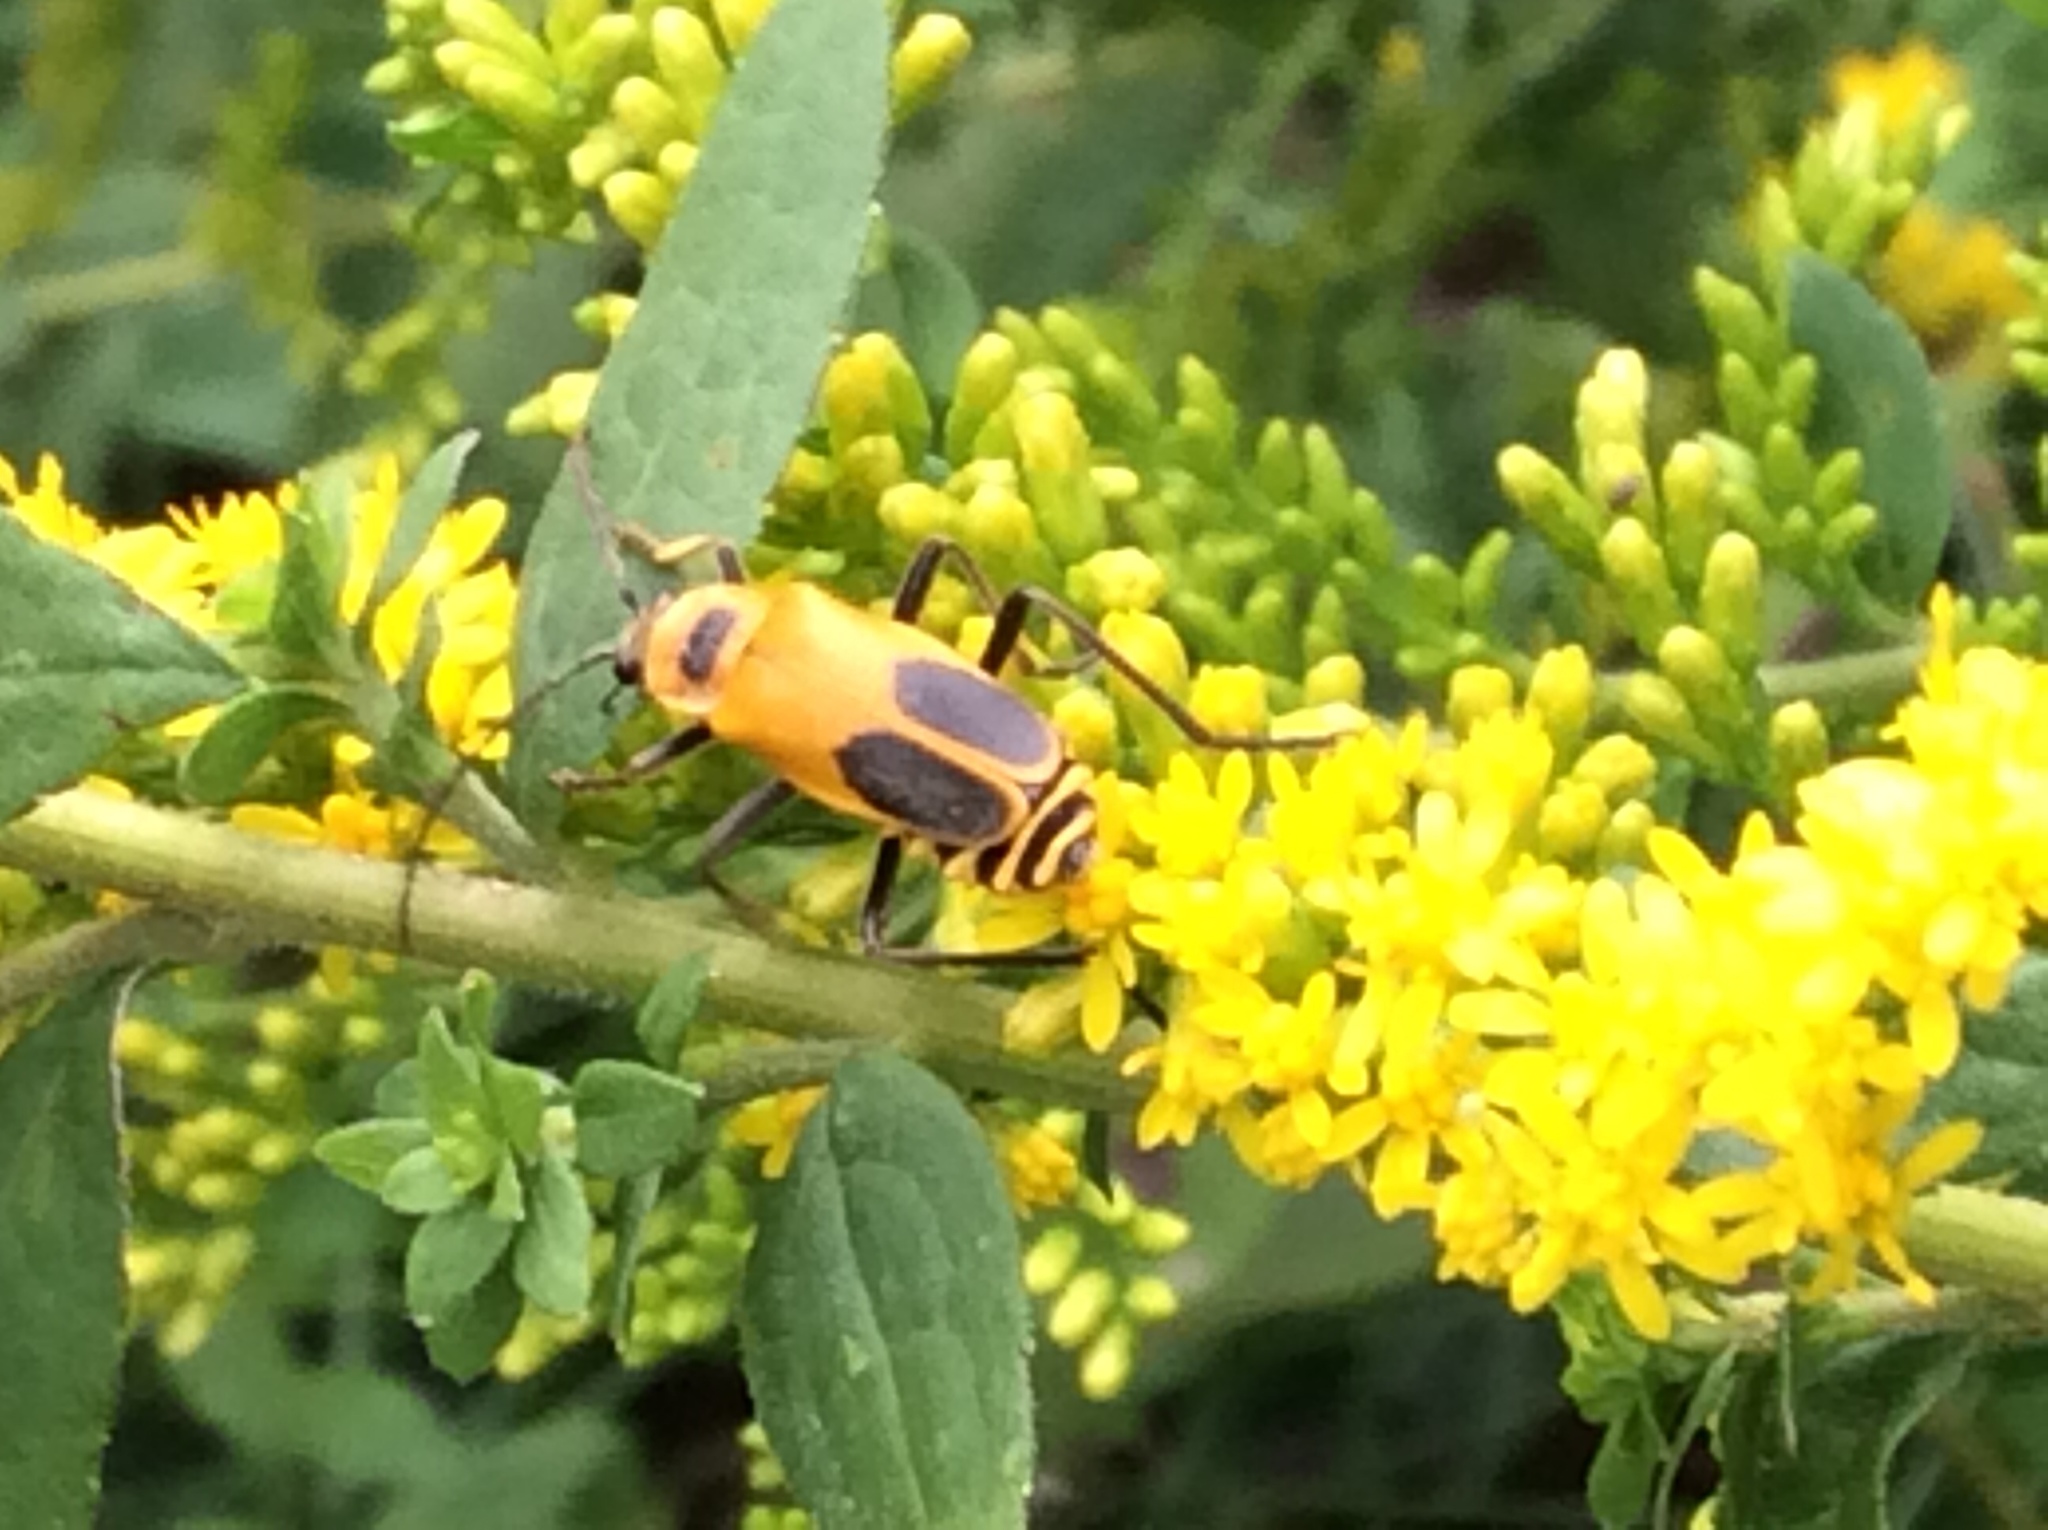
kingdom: Animalia
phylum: Arthropoda
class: Insecta
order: Coleoptera
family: Cantharidae
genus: Chauliognathus
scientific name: Chauliognathus pensylvanicus
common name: Goldenrod soldier beetle
